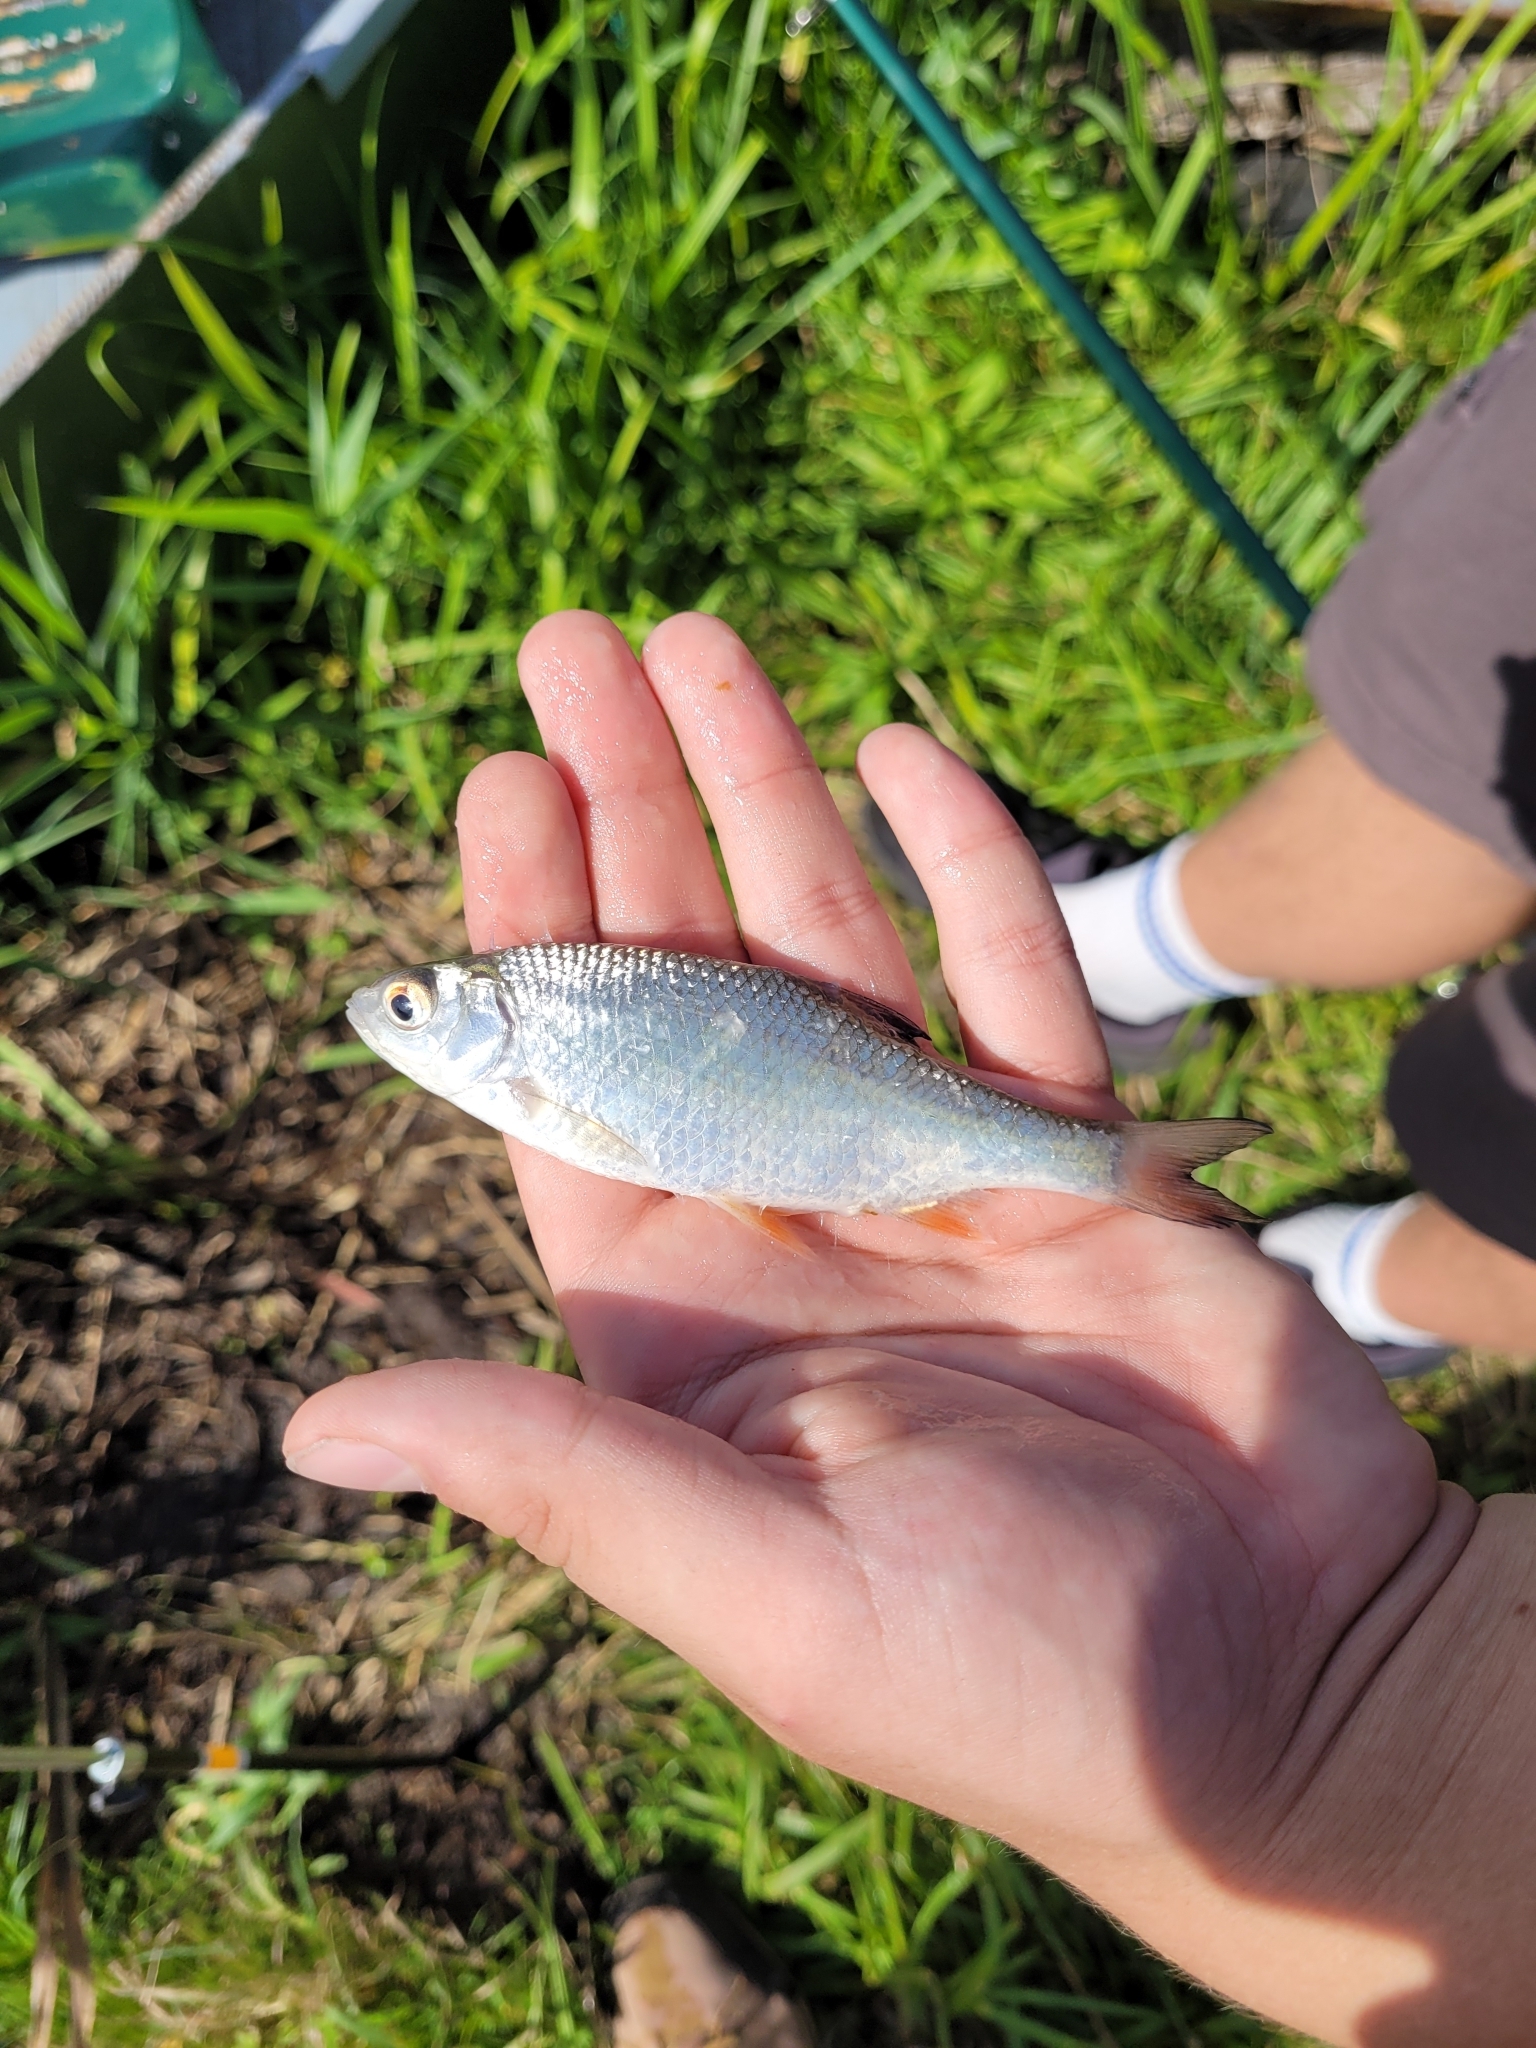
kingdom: Animalia
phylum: Chordata
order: Cypriniformes
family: Cyprinidae
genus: Rutilus
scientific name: Rutilus rutilus
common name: Roach
